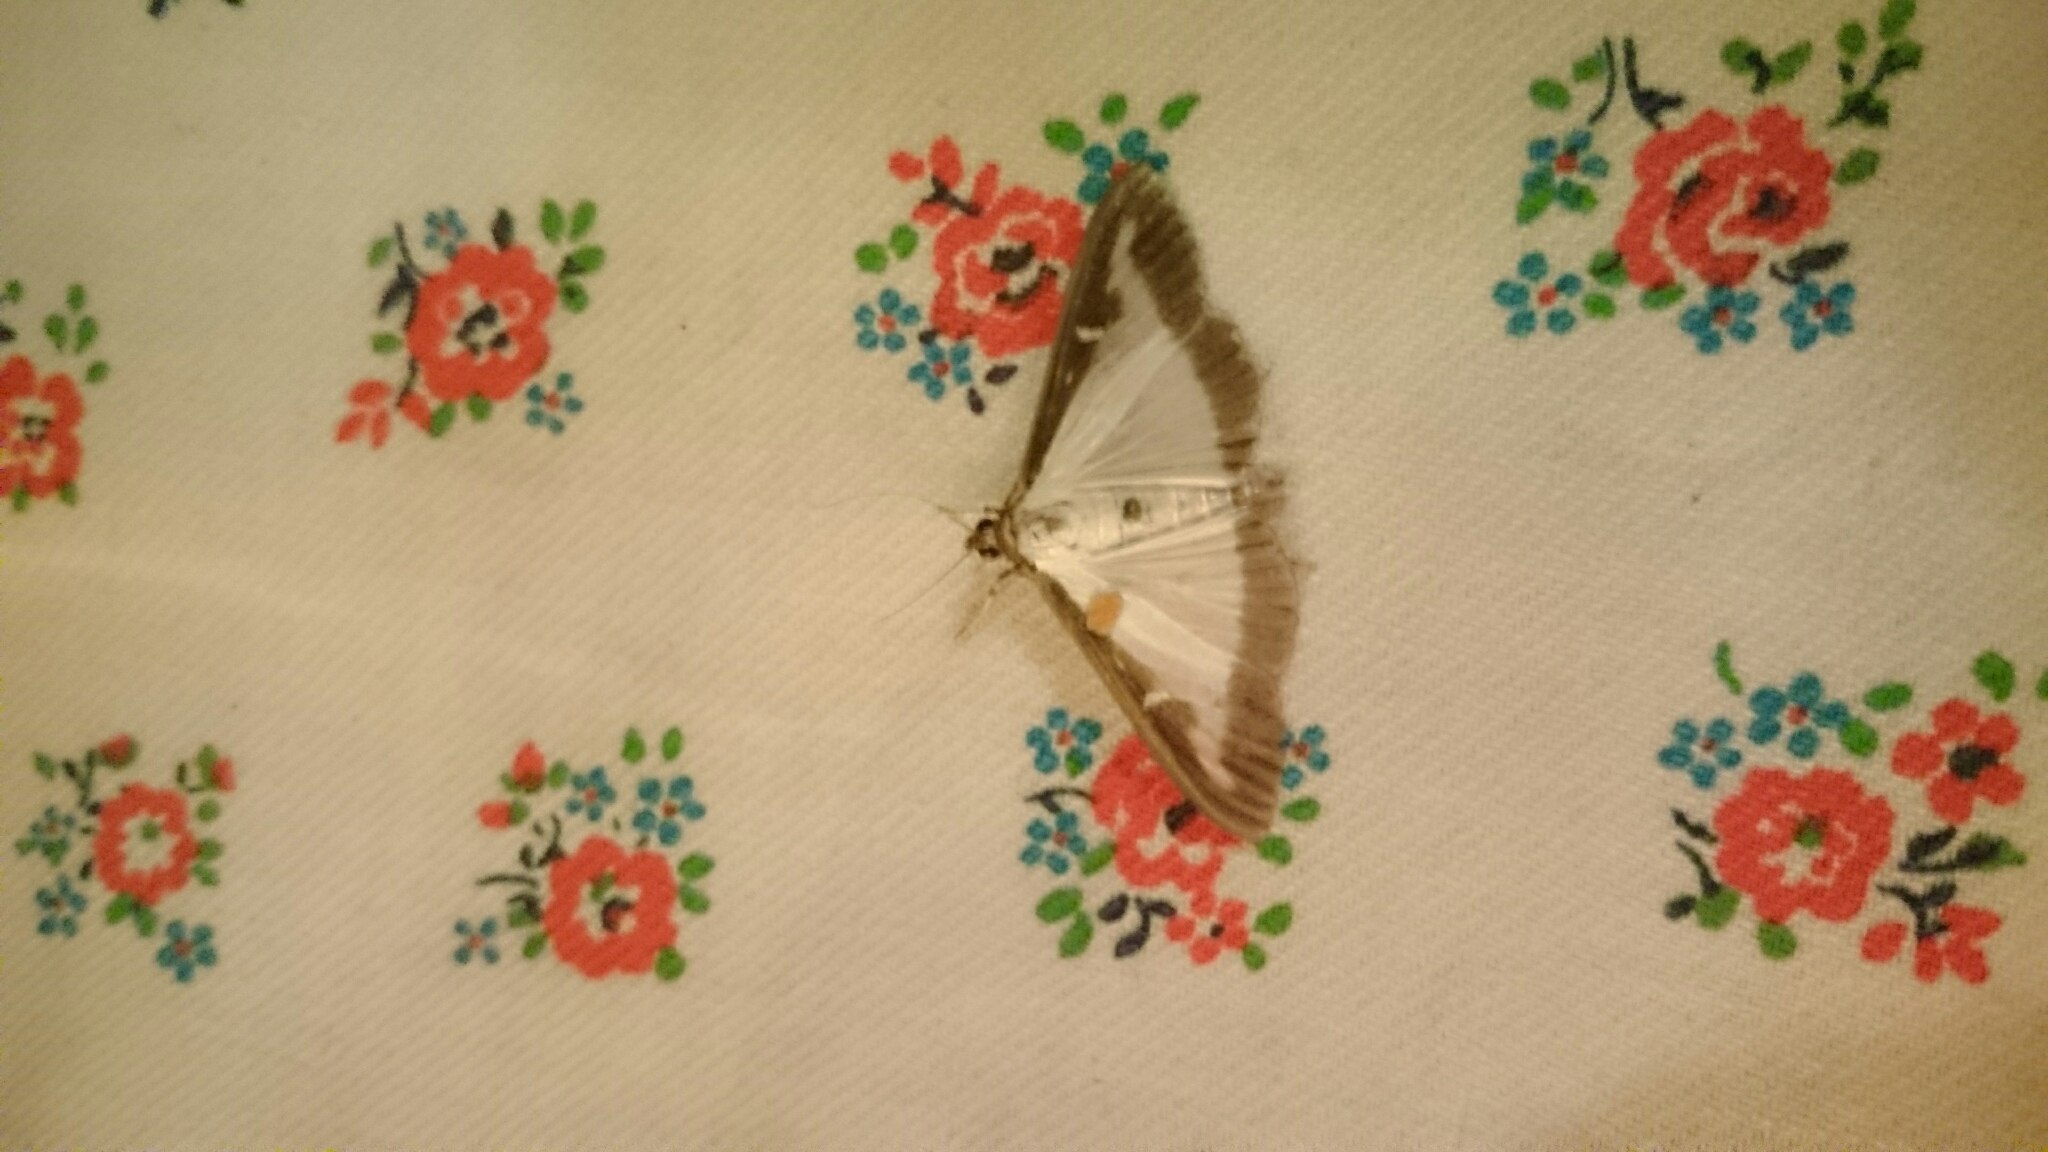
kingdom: Animalia
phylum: Arthropoda
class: Insecta
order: Lepidoptera
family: Crambidae
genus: Cydalima
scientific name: Cydalima perspectalis
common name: Box tree moth
